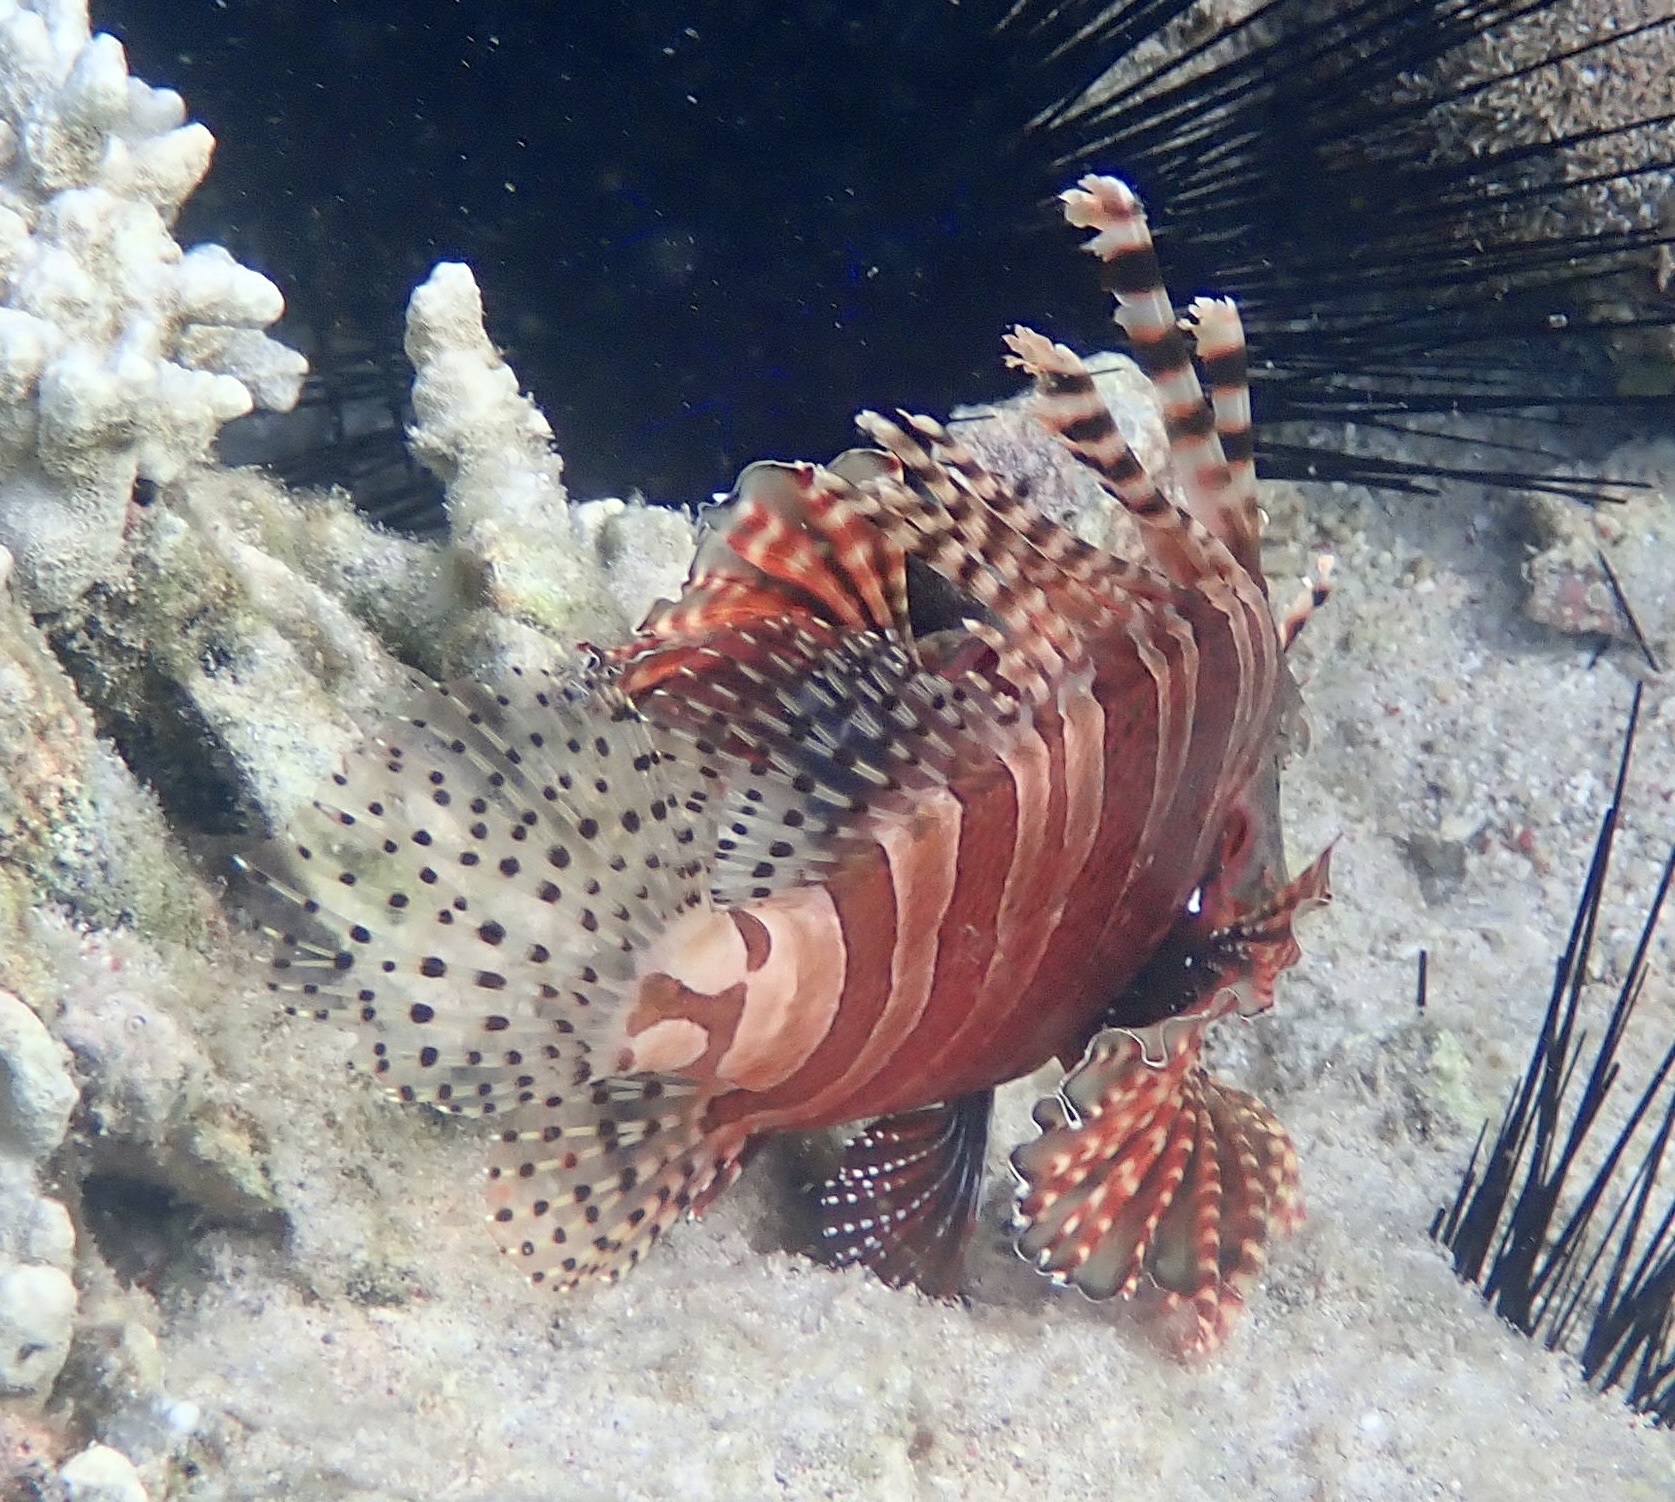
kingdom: Animalia
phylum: Chordata
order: Scorpaeniformes
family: Scorpaenidae
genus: Dendrochirus
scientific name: Dendrochirus zebra
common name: Zebra lionfish
